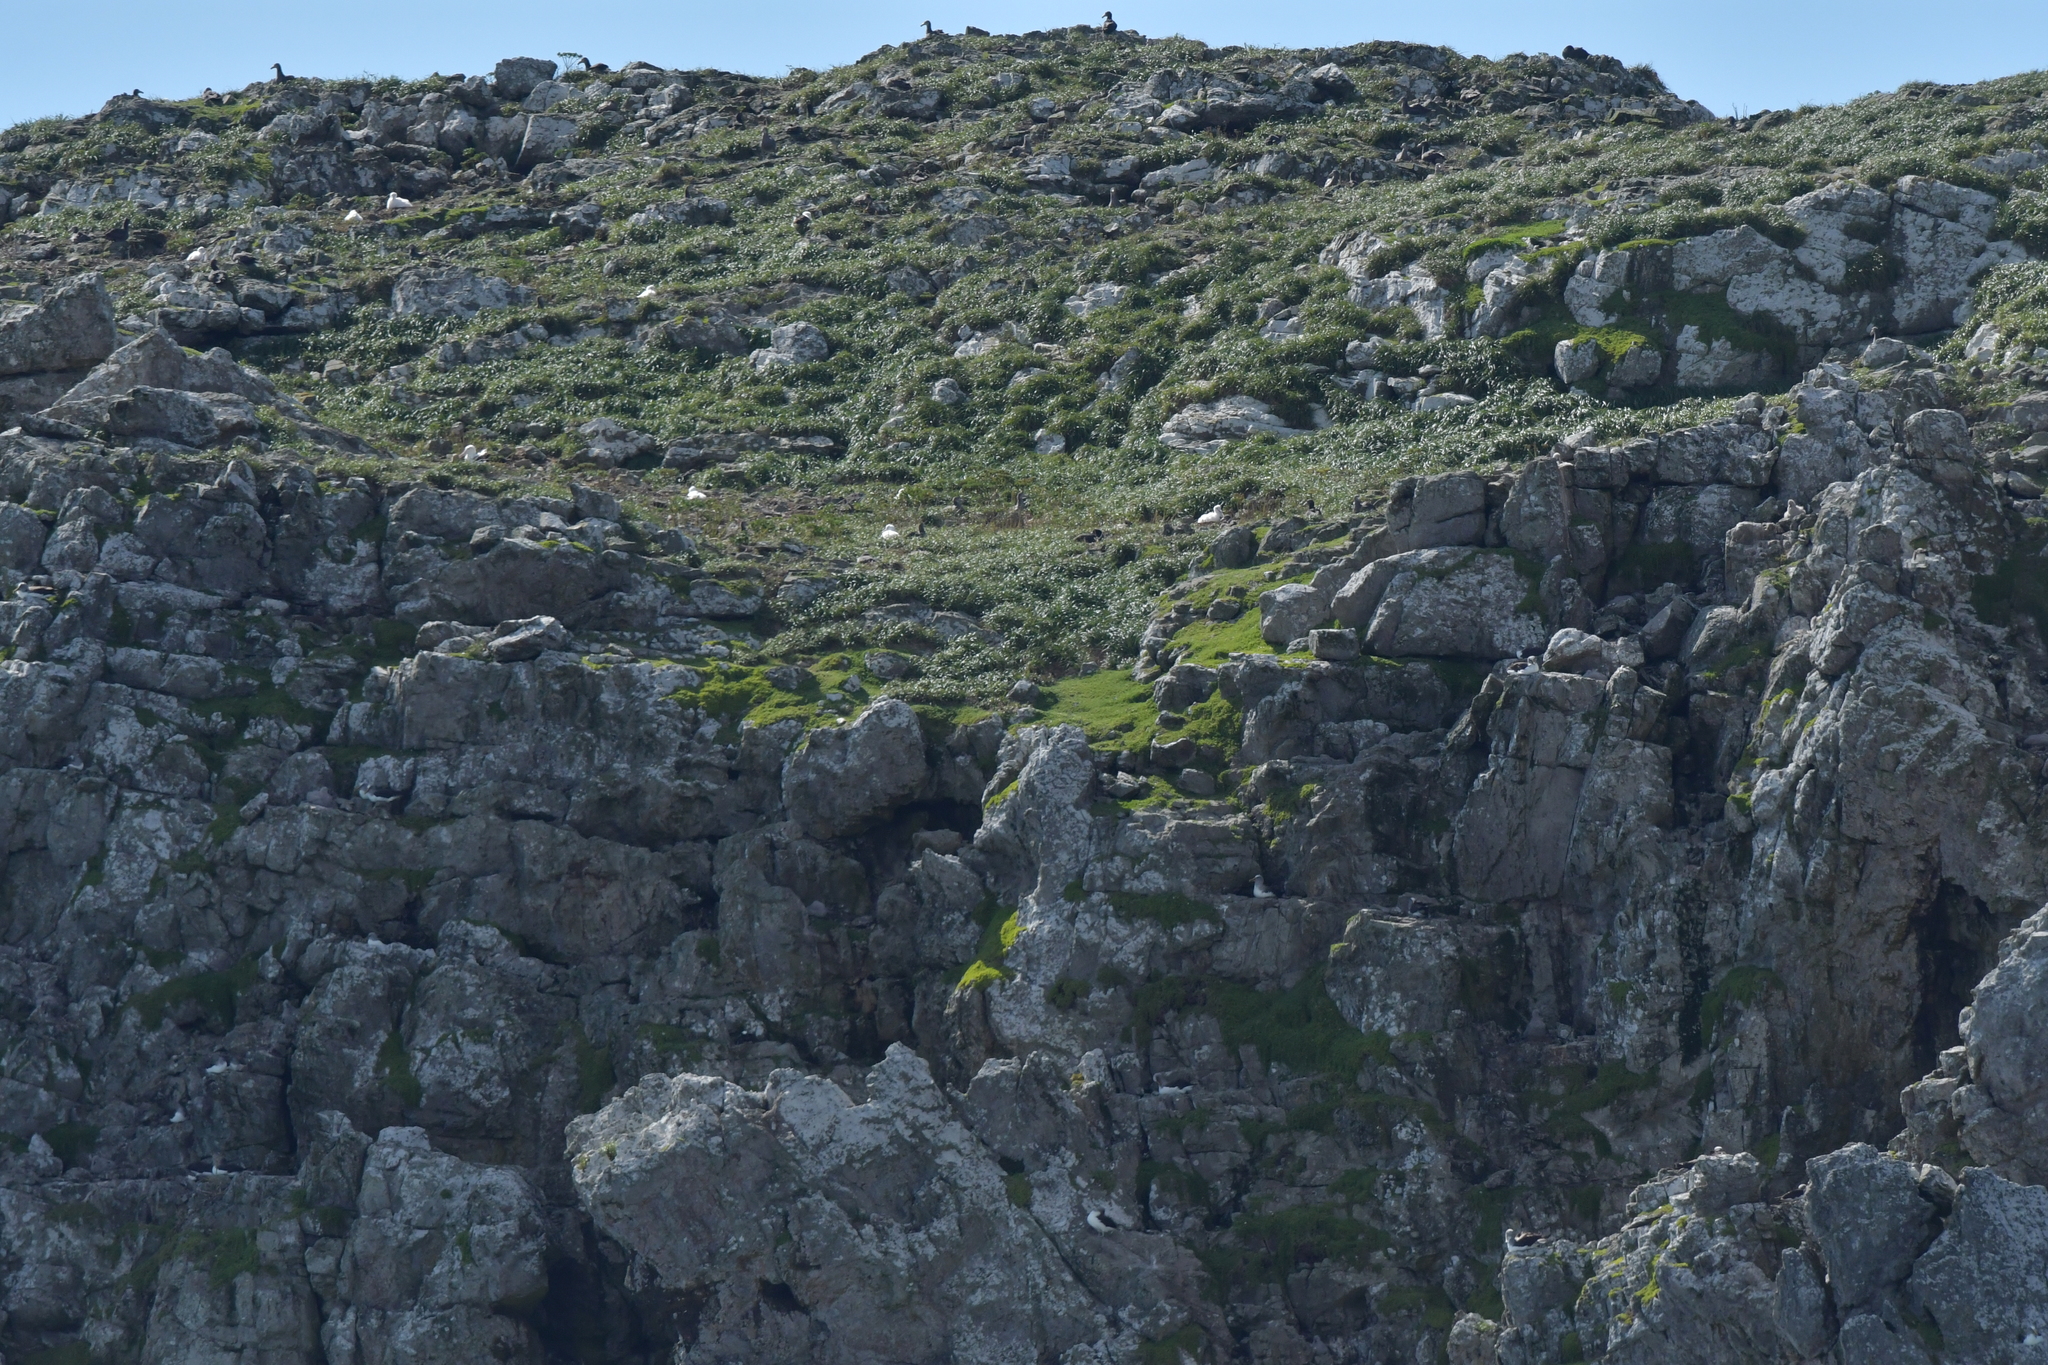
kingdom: Animalia
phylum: Chordata
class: Aves
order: Procellariiformes
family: Procellariidae
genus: Macronectes
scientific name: Macronectes halli
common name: Northern giant petrel
